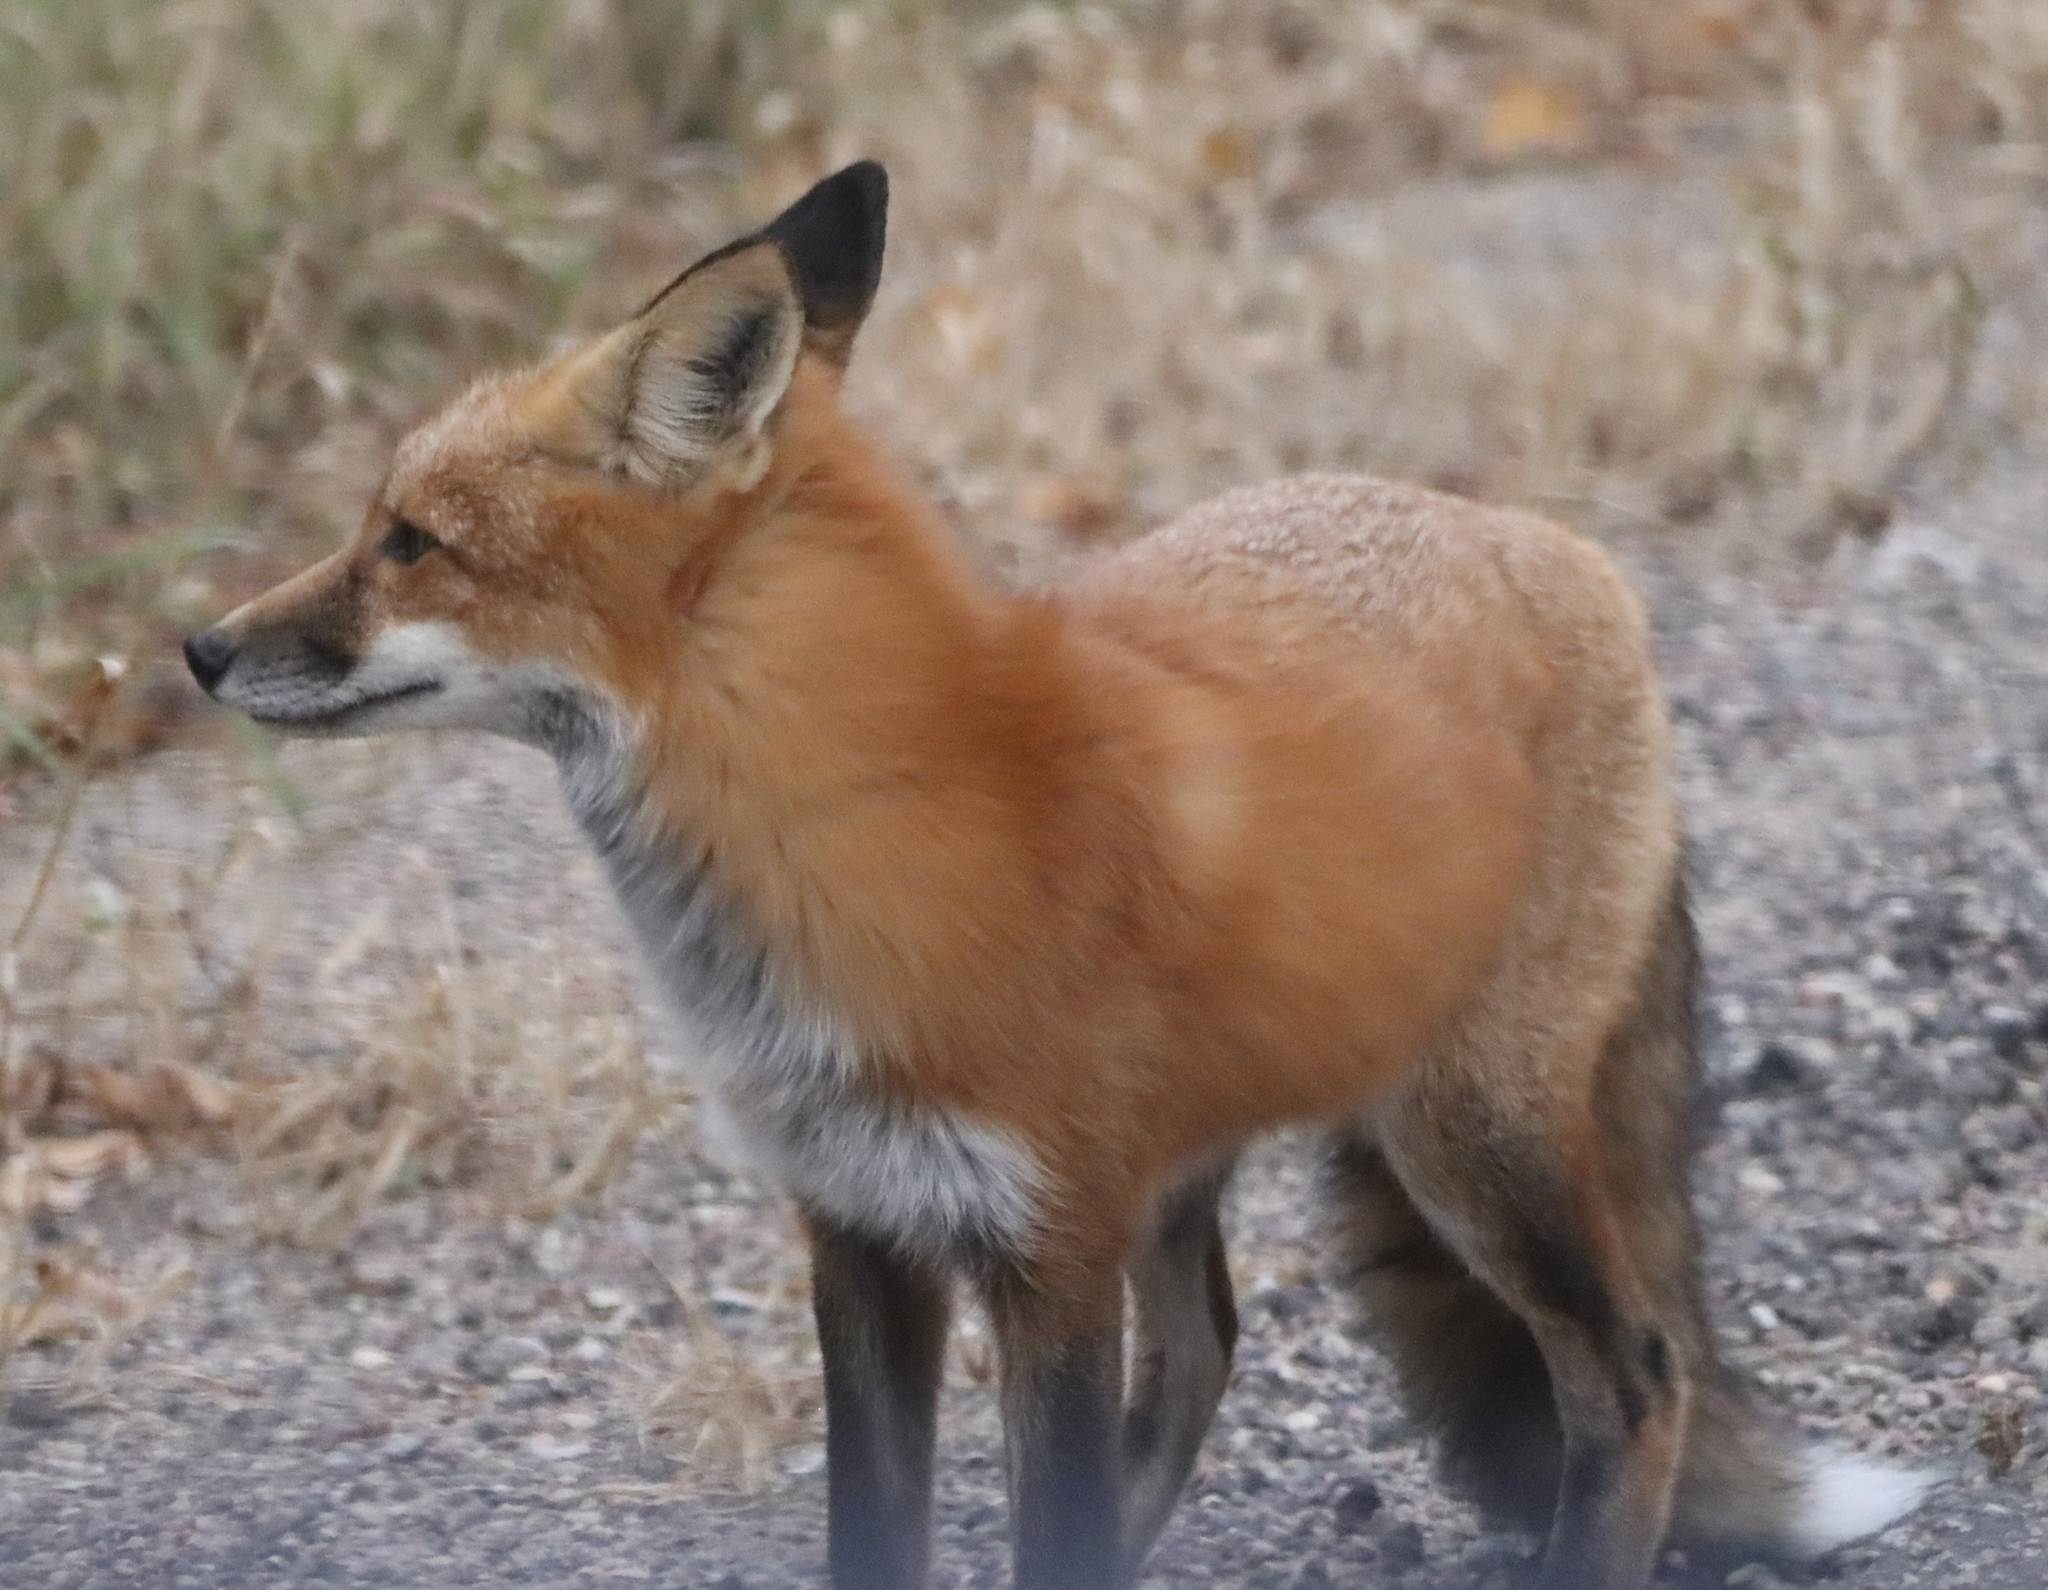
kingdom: Animalia
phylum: Chordata
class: Mammalia
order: Carnivora
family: Canidae
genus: Vulpes
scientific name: Vulpes vulpes
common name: Red fox
